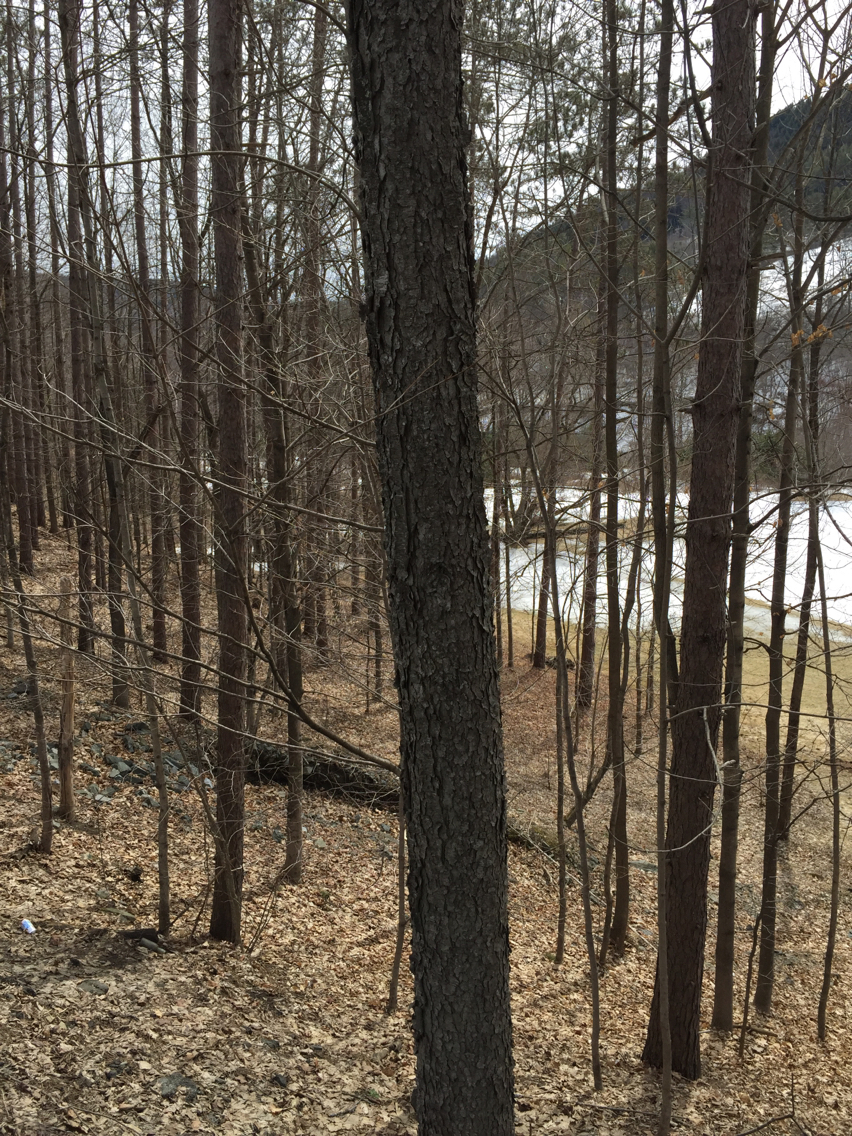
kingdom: Plantae
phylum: Tracheophyta
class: Magnoliopsida
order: Rosales
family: Rosaceae
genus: Prunus
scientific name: Prunus serotina
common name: Black cherry
